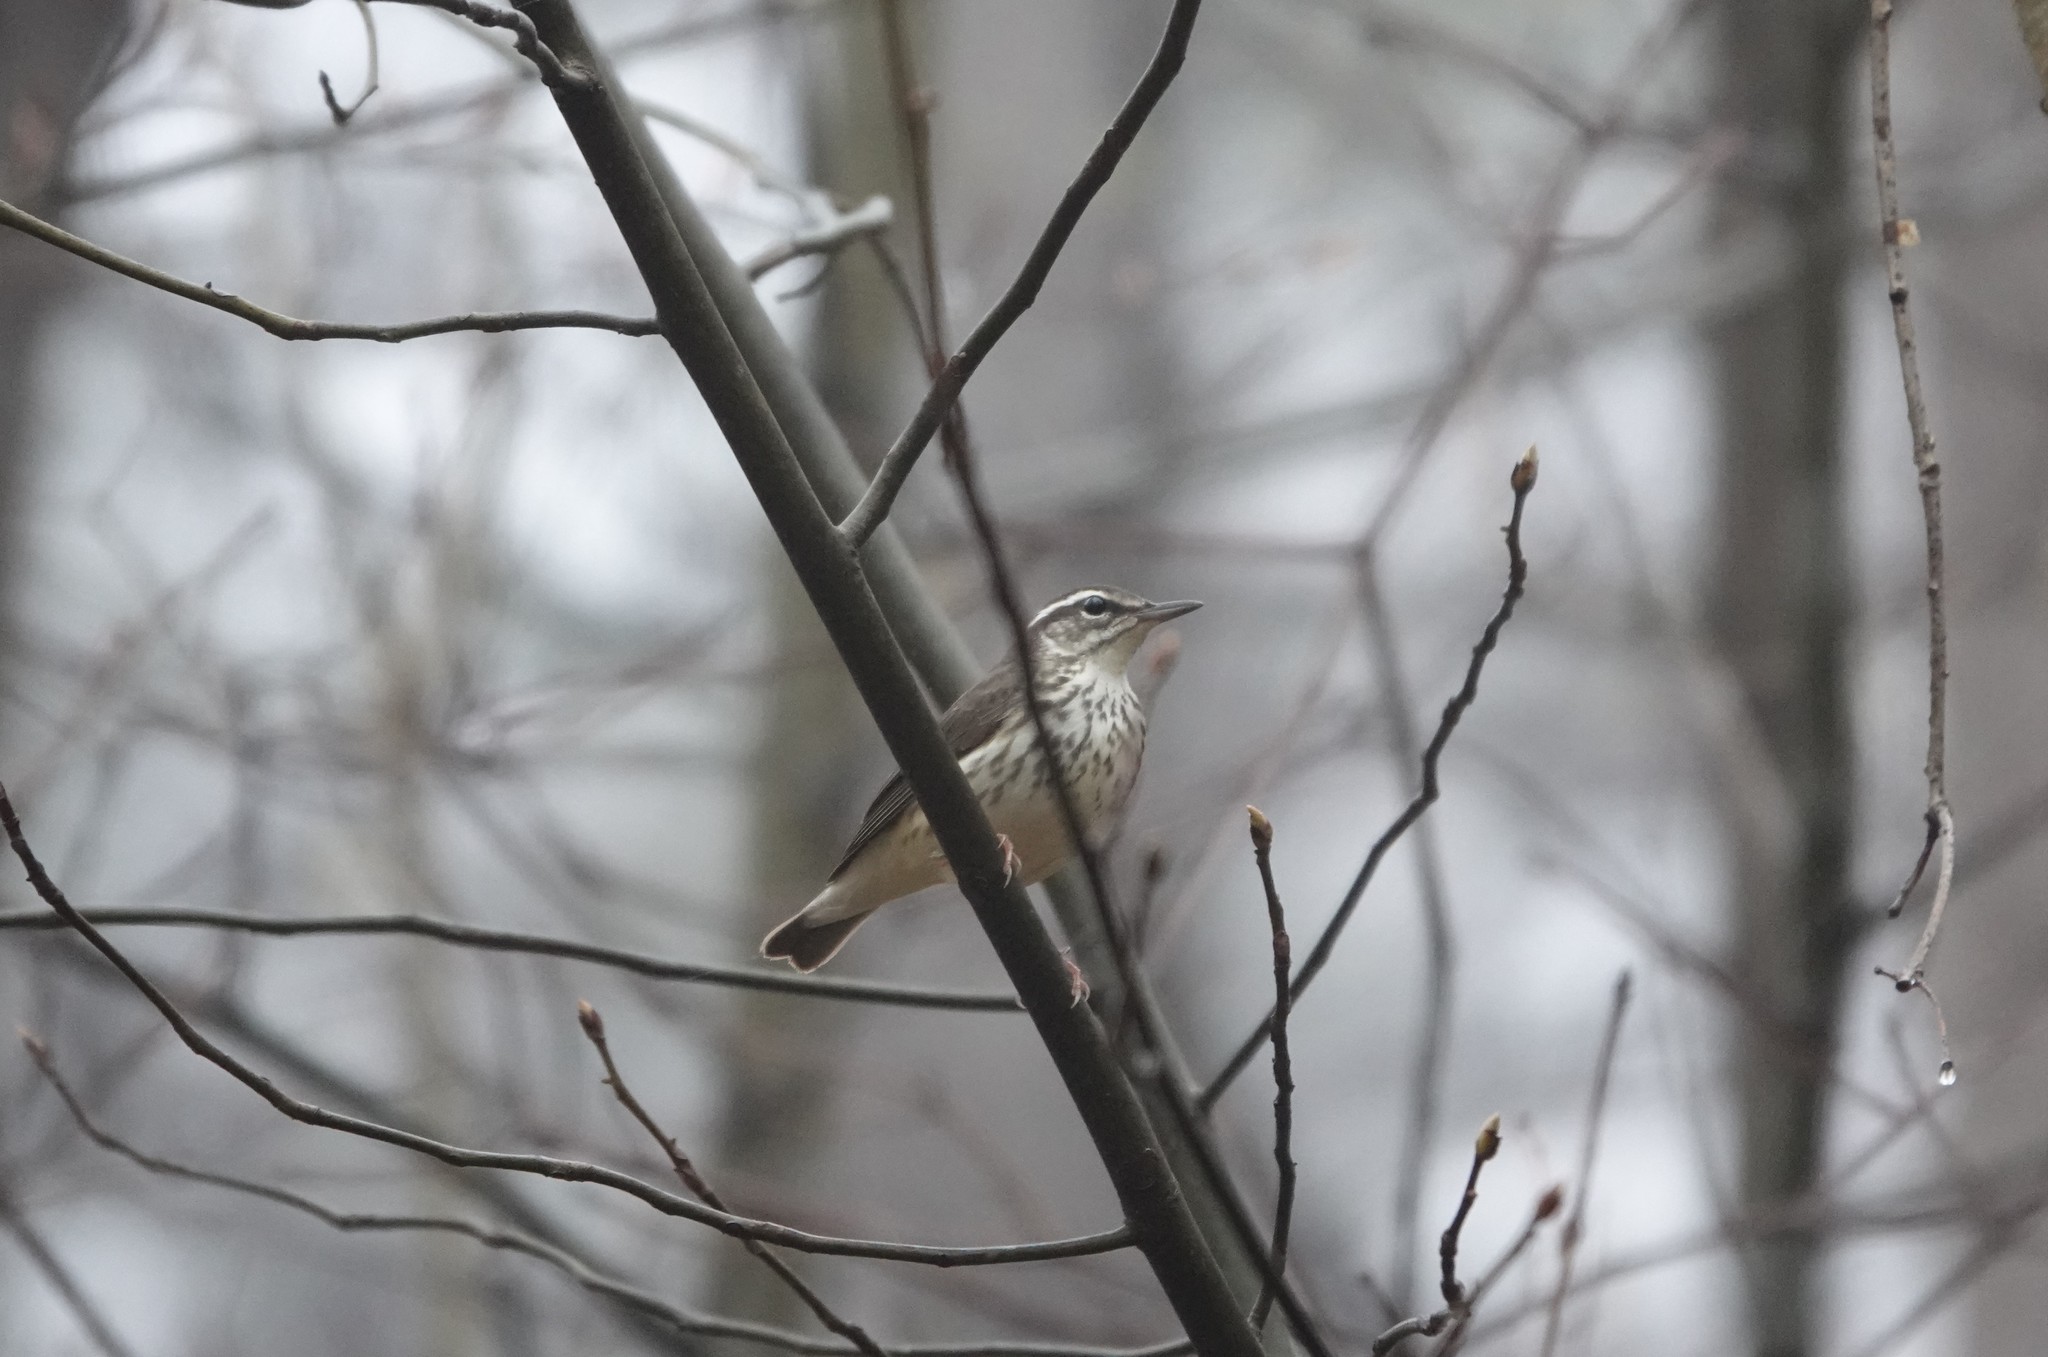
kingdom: Animalia
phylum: Chordata
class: Aves
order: Passeriformes
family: Parulidae
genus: Parkesia
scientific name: Parkesia motacilla
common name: Louisiana waterthrush
